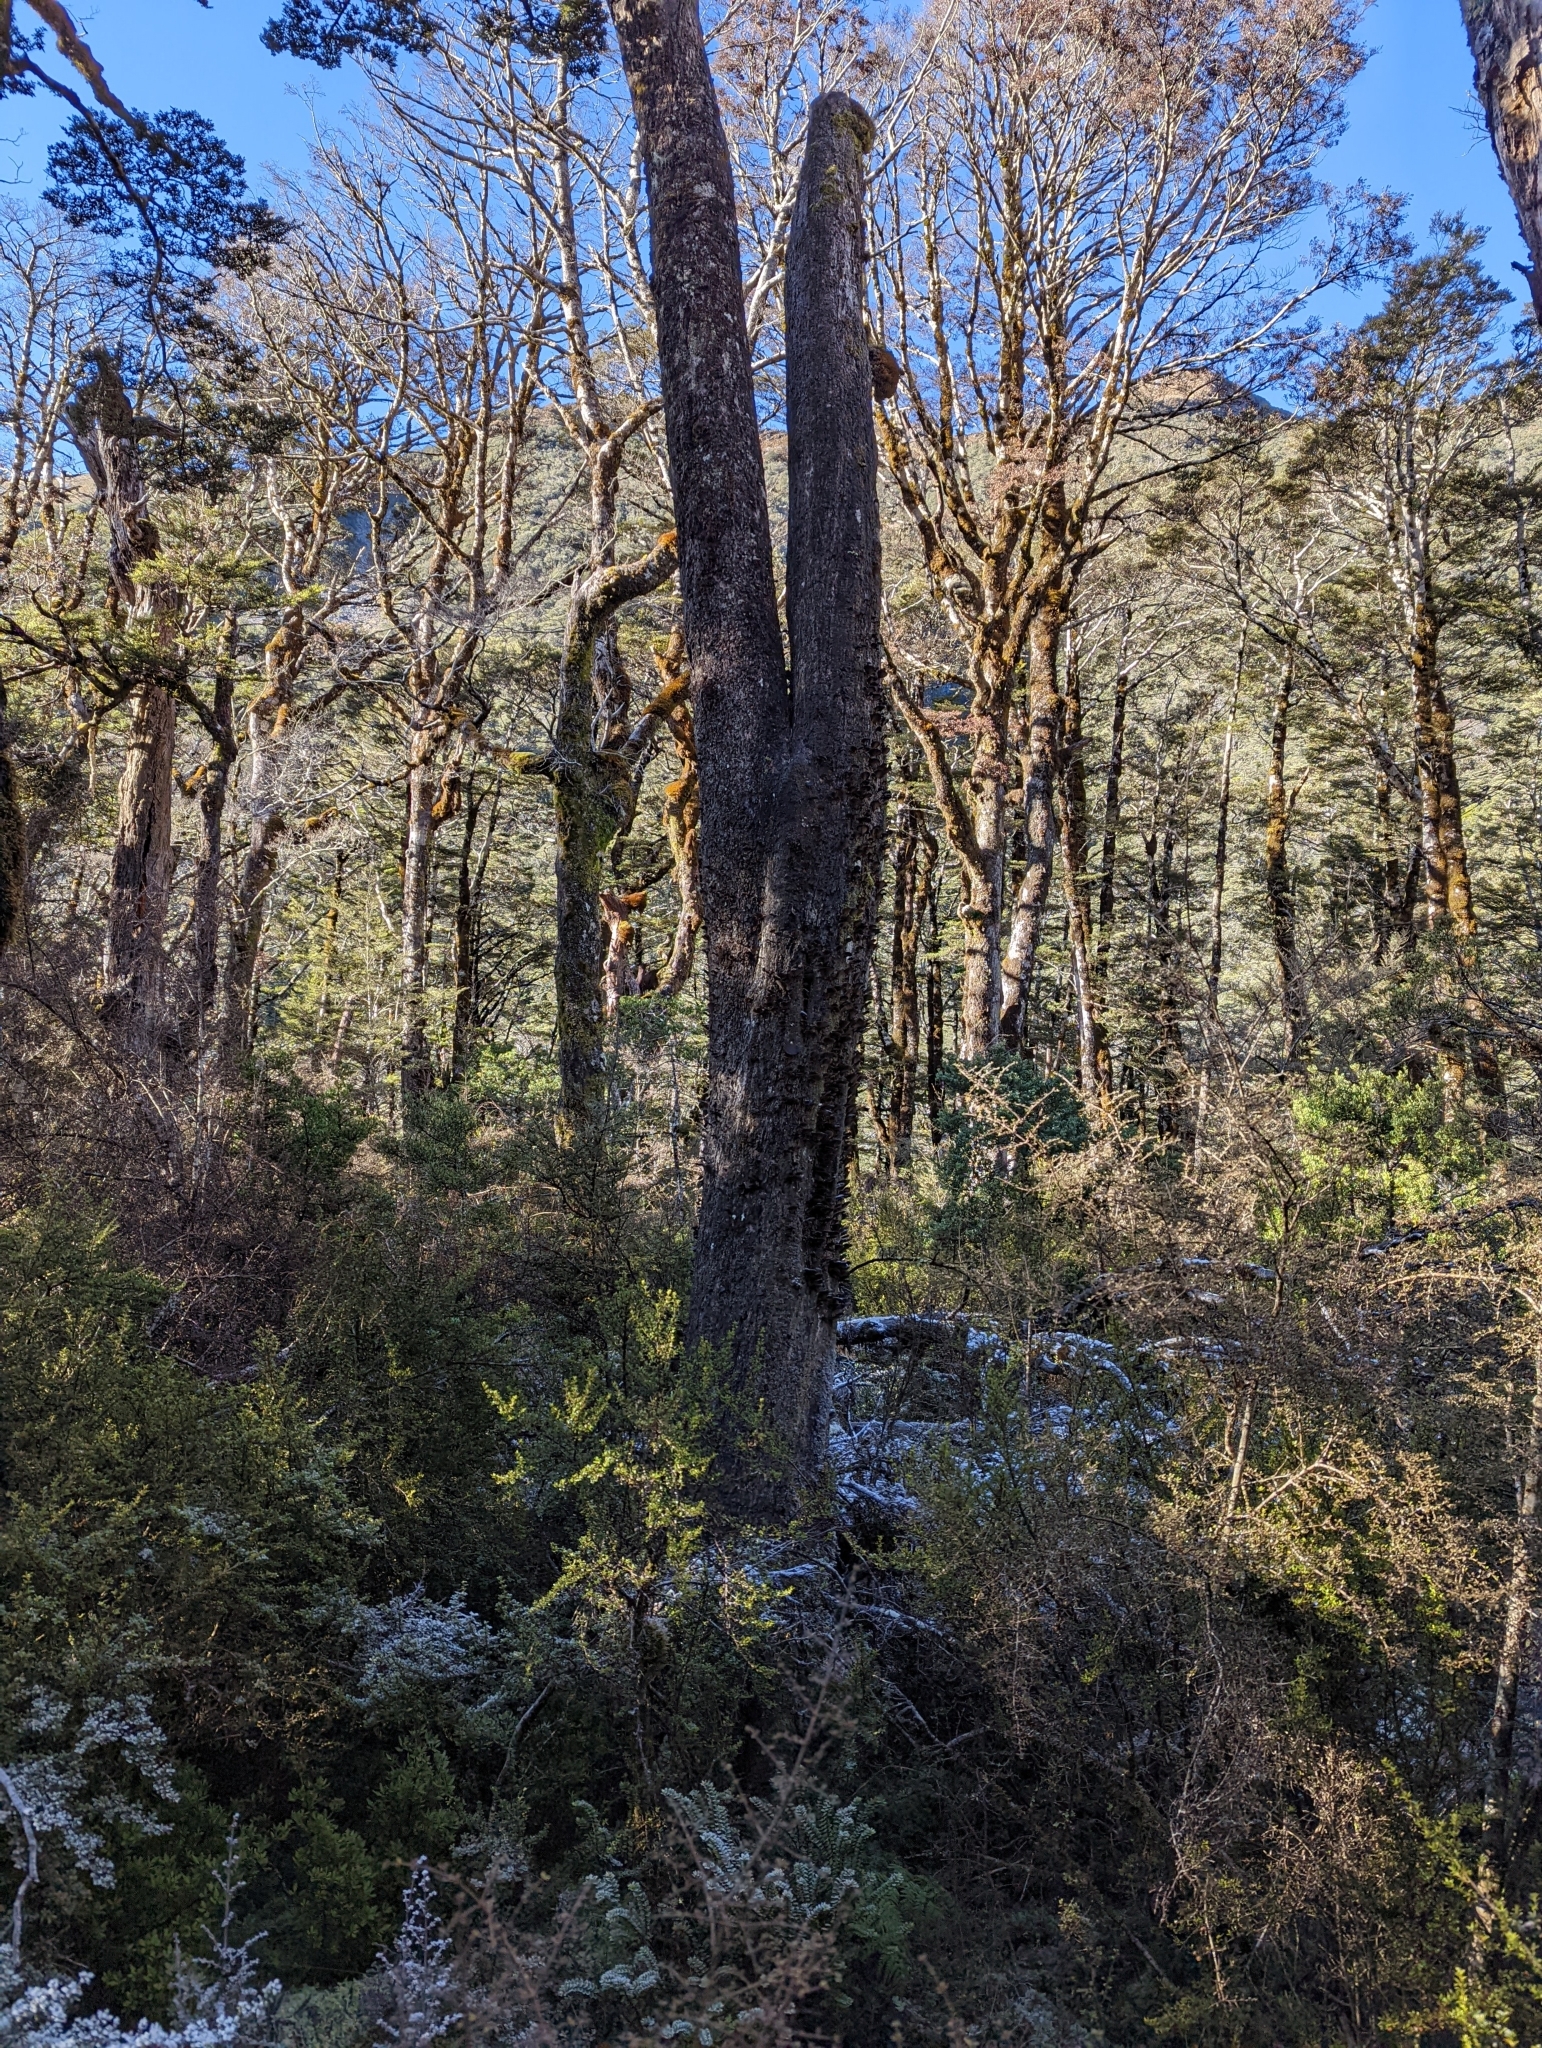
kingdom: Fungi
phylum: Basidiomycota
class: Agaricomycetes
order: Agaricales
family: Pleurotaceae
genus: Pleurotus
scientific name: Pleurotus purpureo-olivaceus
